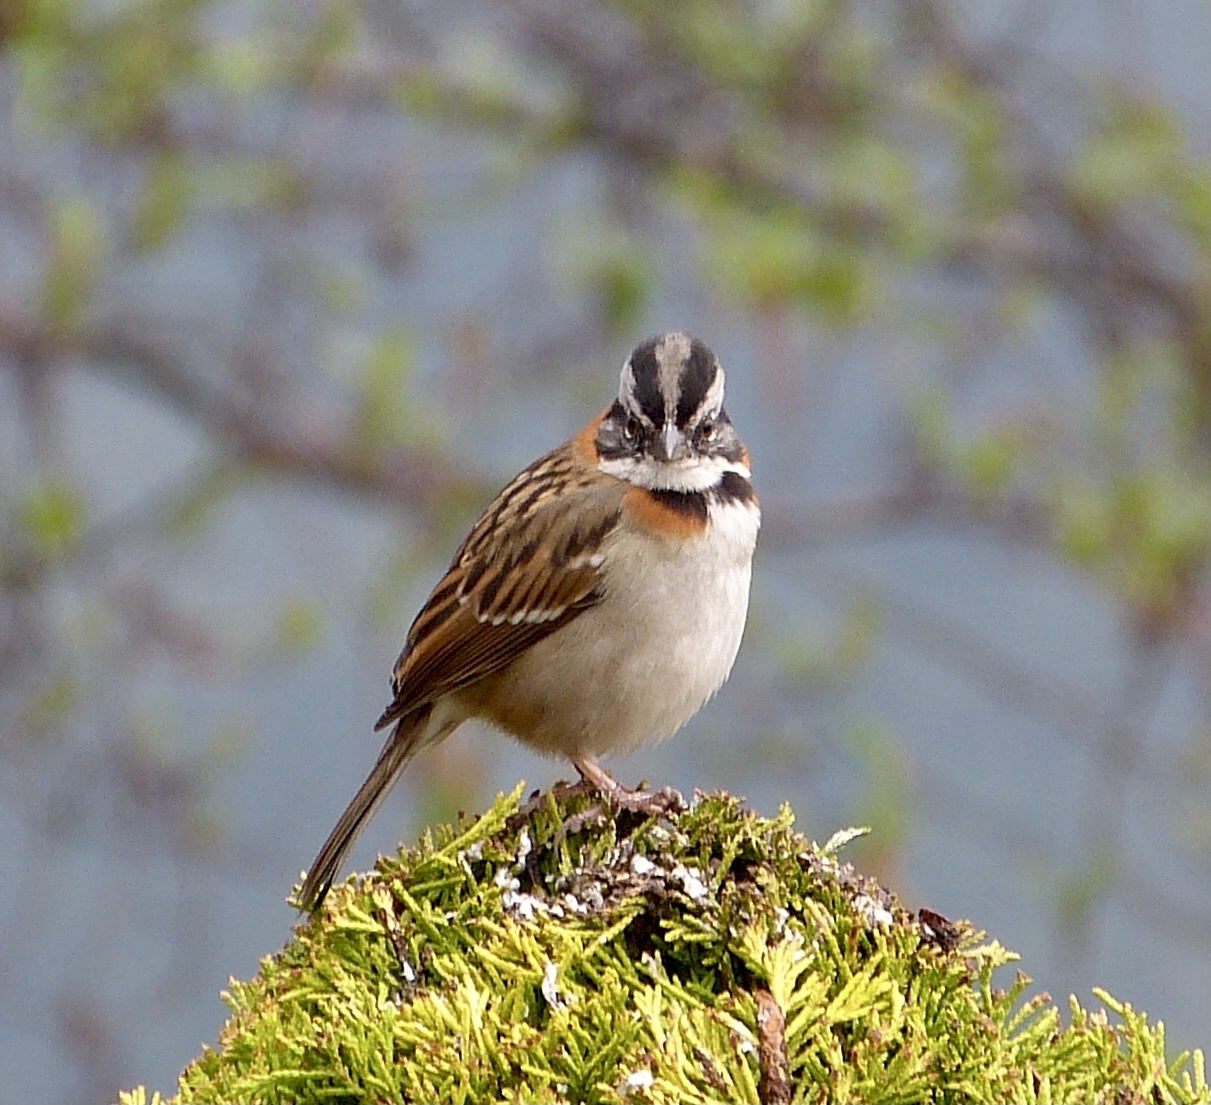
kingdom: Animalia
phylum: Chordata
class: Aves
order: Passeriformes
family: Passerellidae
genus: Zonotrichia
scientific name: Zonotrichia capensis
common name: Rufous-collared sparrow
